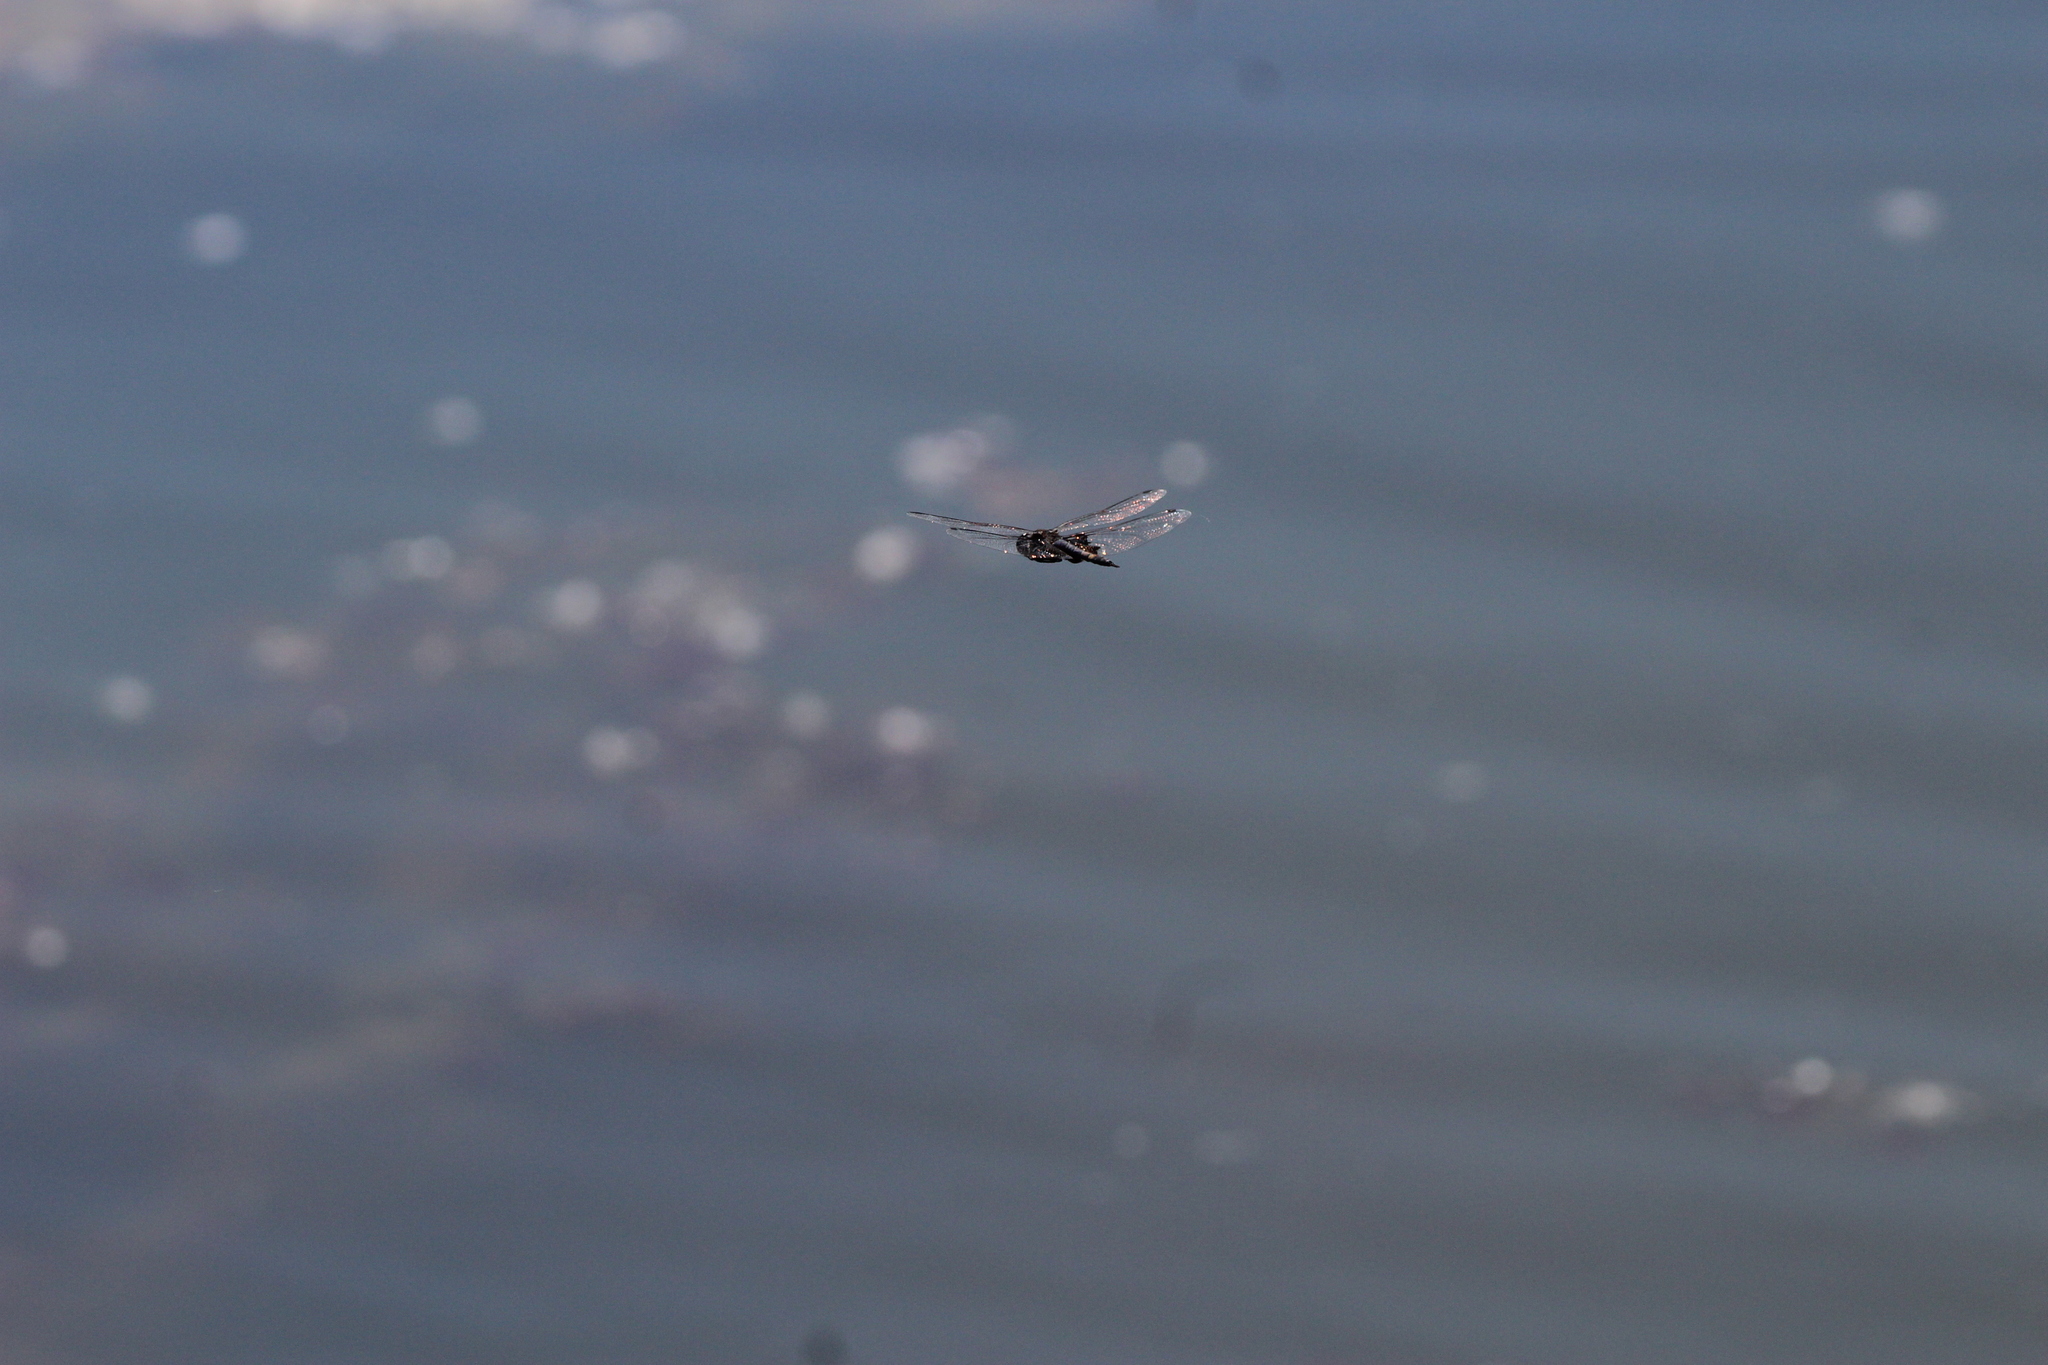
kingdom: Animalia
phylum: Arthropoda
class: Insecta
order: Odonata
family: Libellulidae
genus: Tramea
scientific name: Tramea lacerata
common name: Black saddlebags
